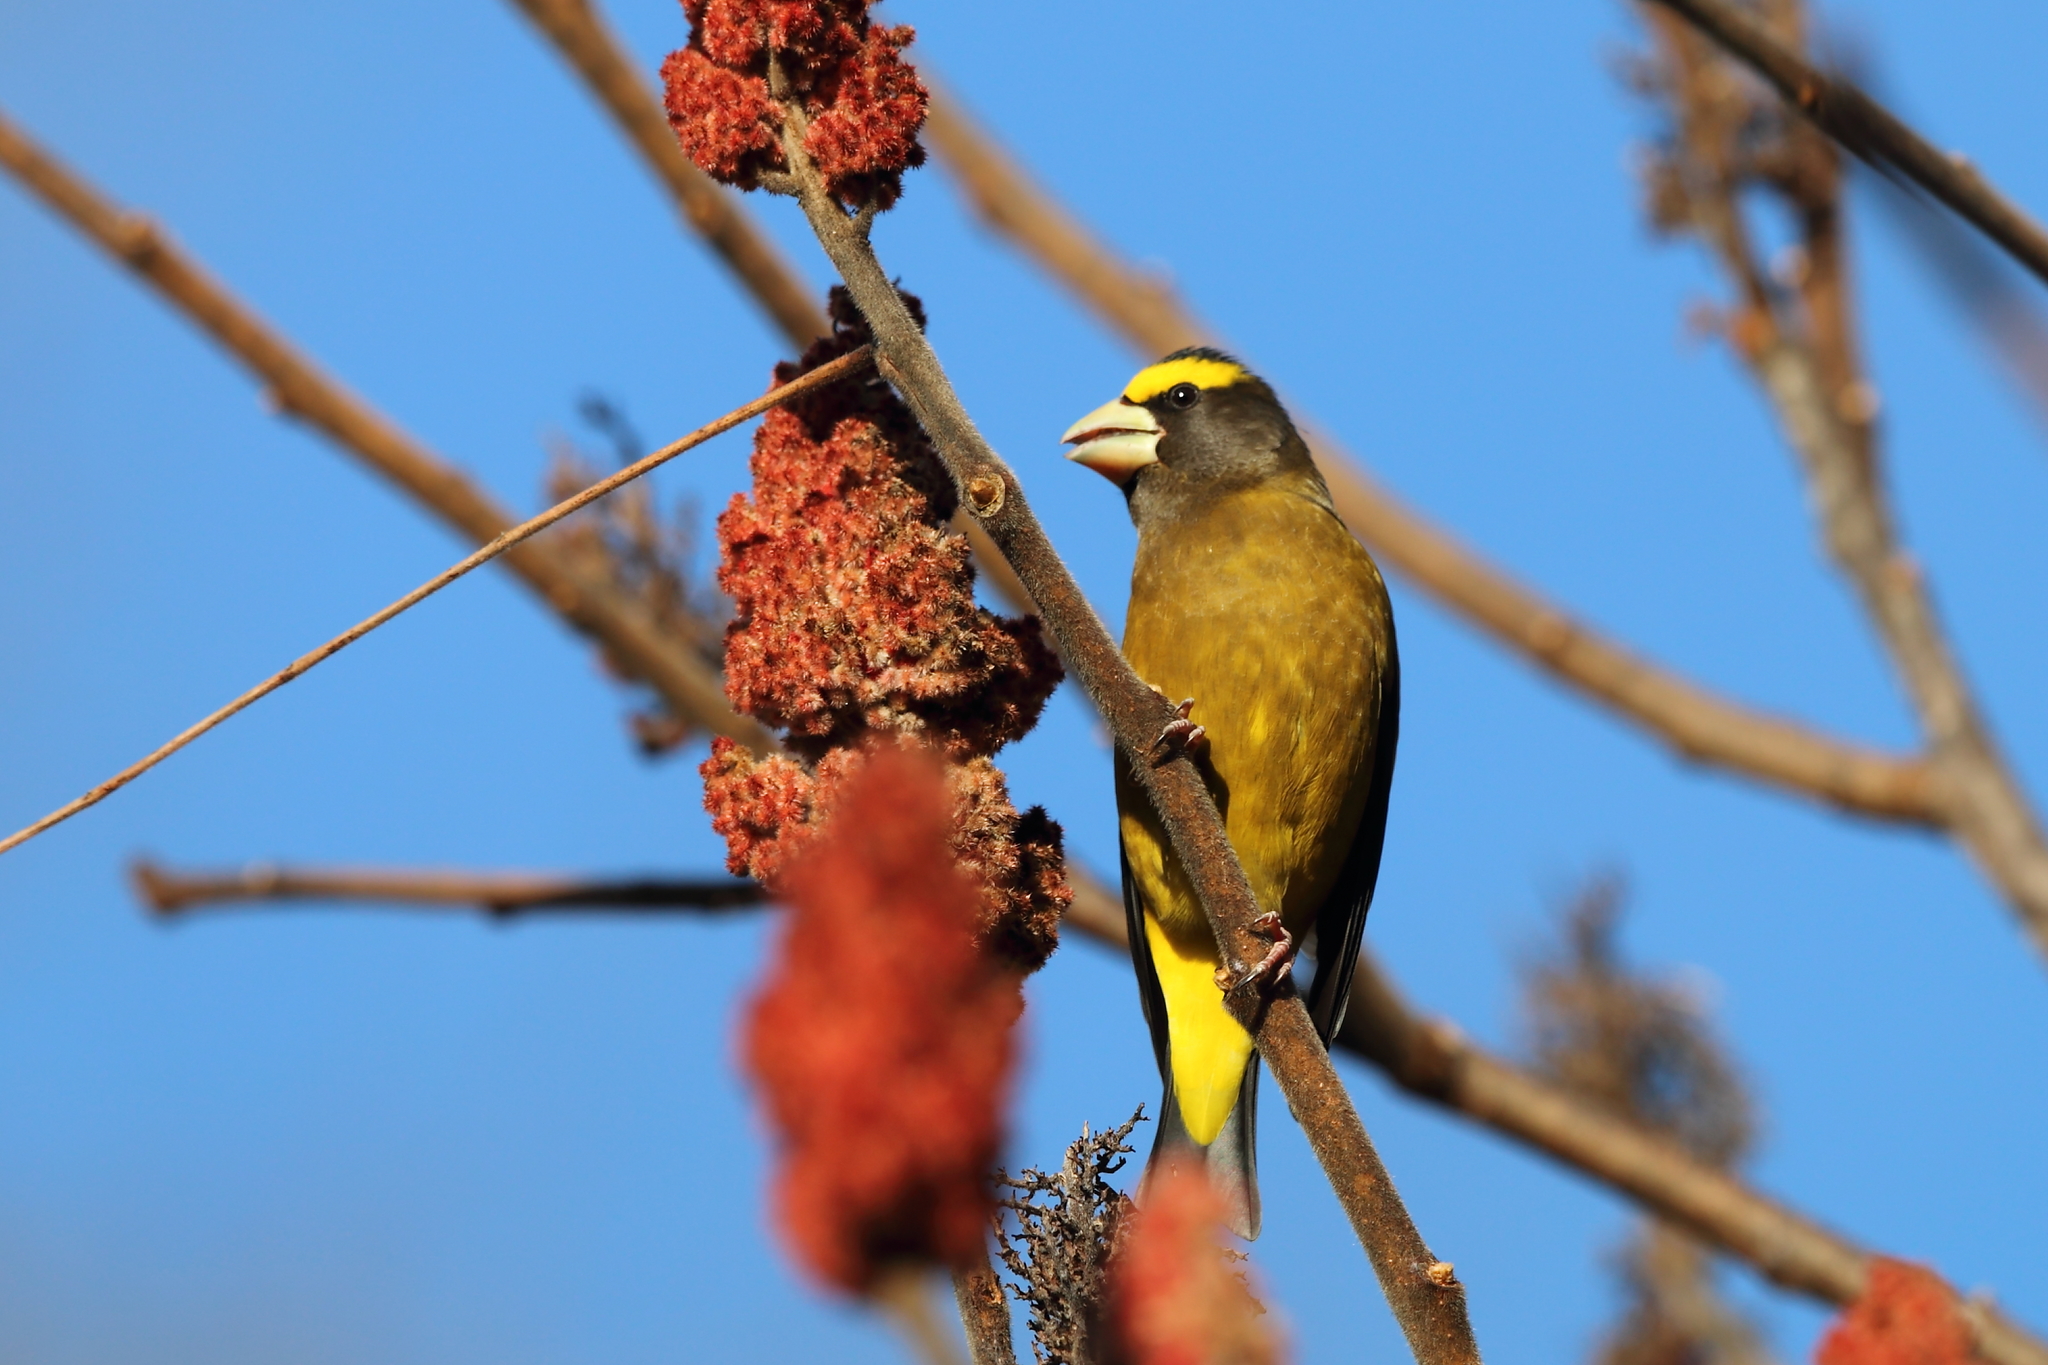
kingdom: Animalia
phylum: Chordata
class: Aves
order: Passeriformes
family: Fringillidae
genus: Hesperiphona
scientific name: Hesperiphona vespertina
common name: Evening grosbeak
